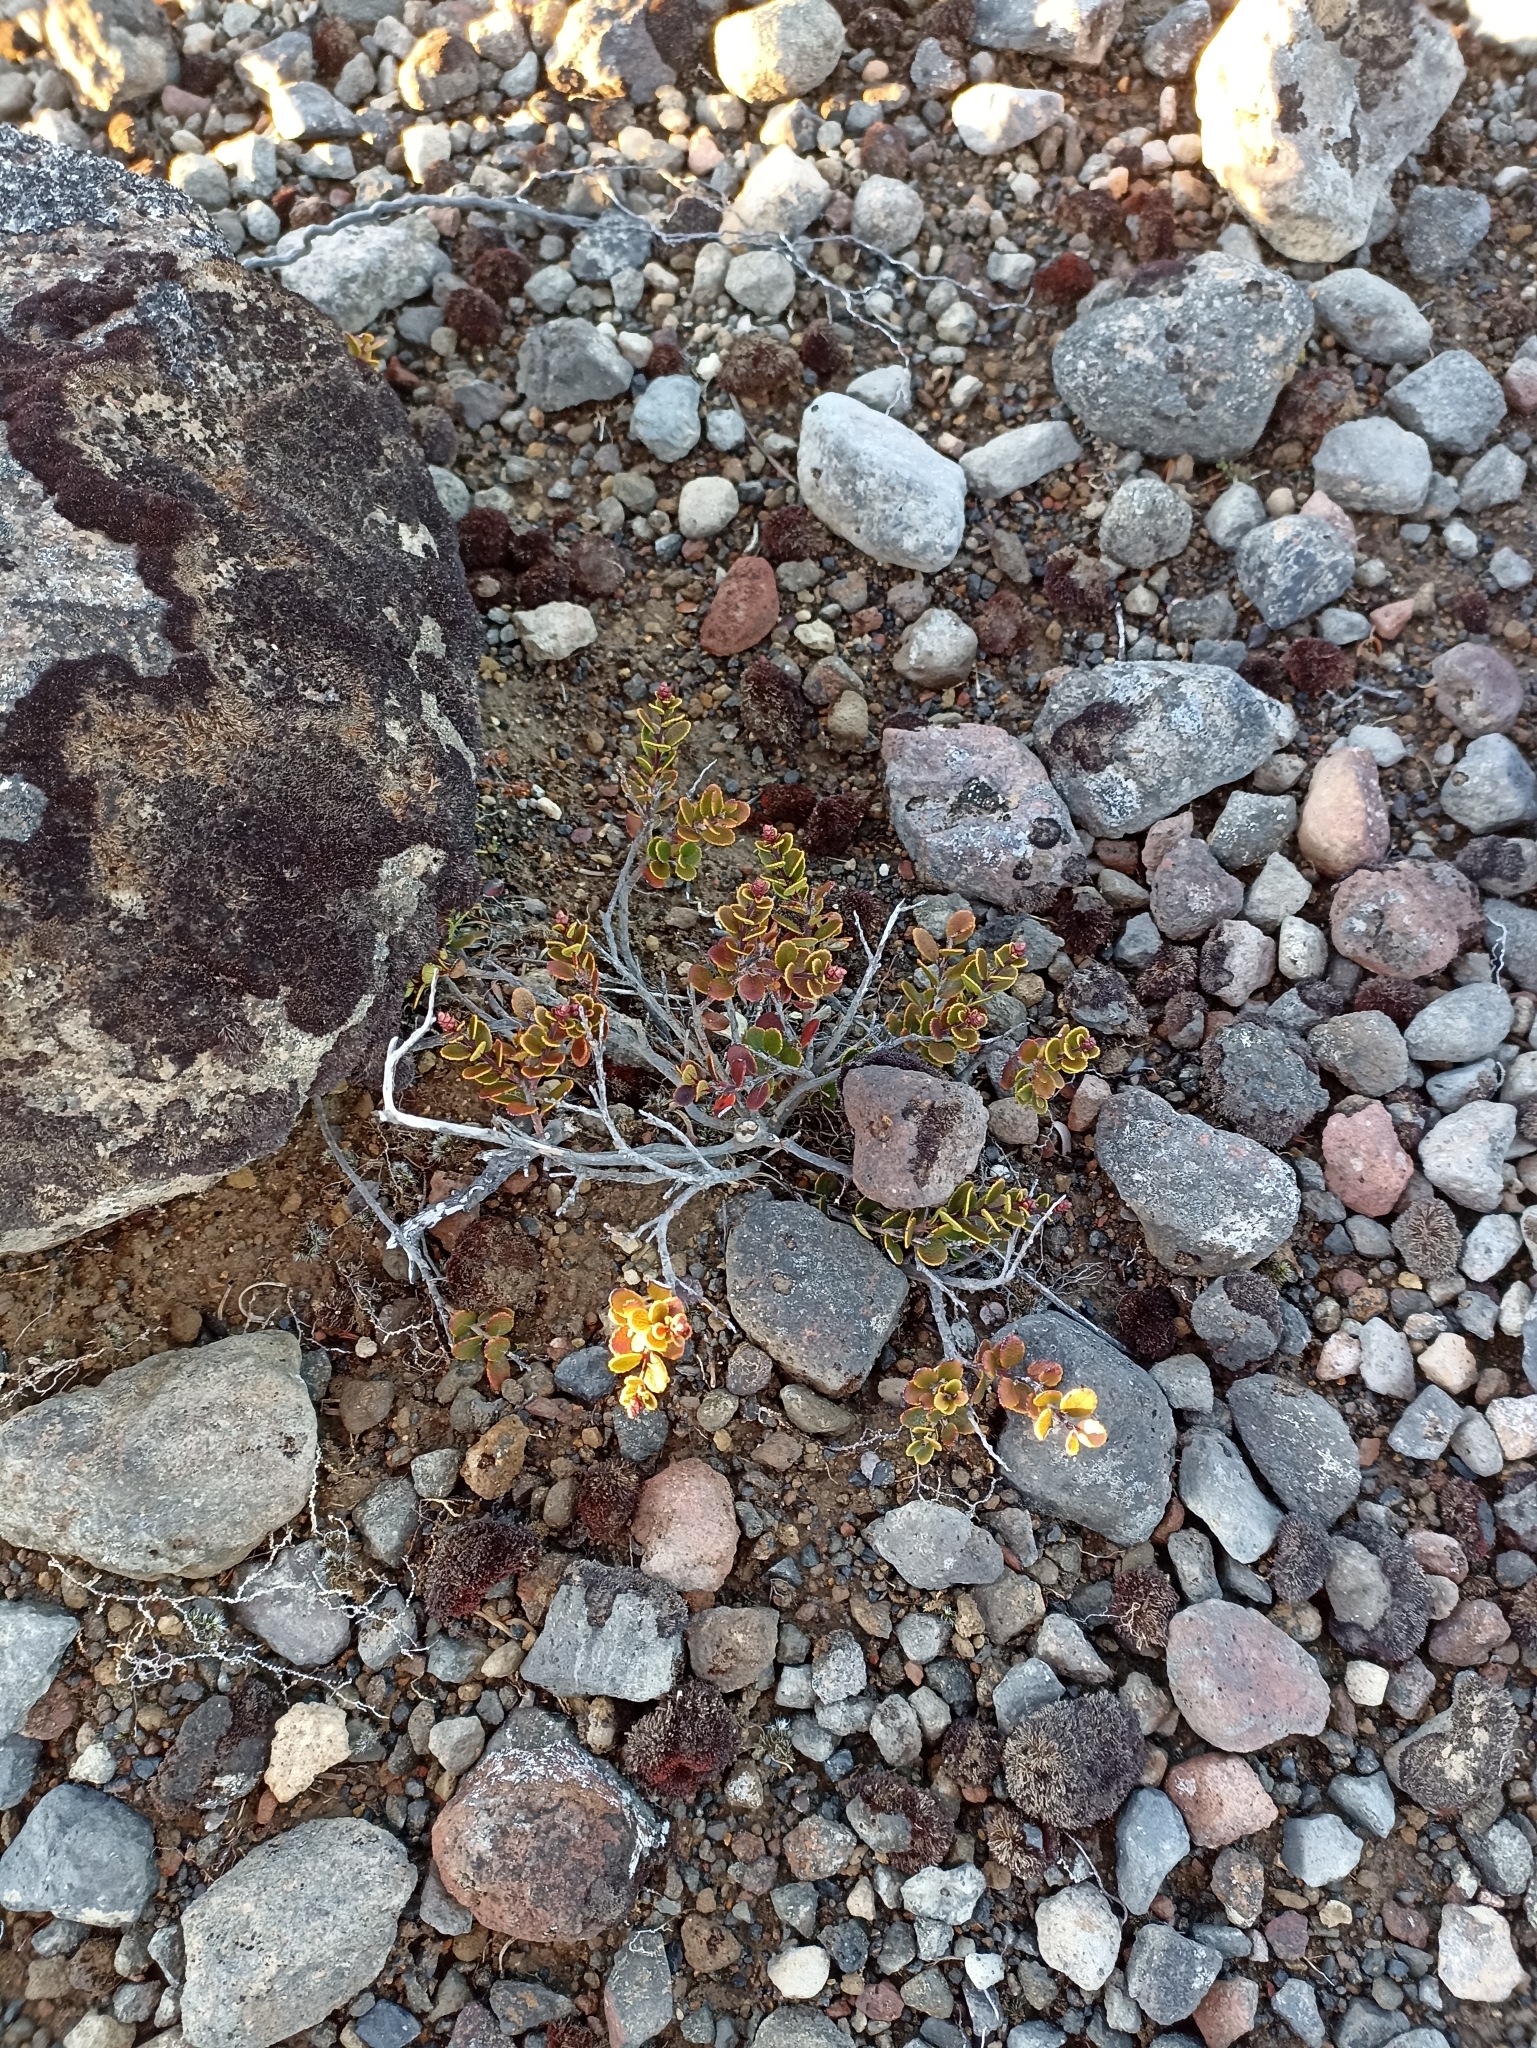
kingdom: Plantae
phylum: Tracheophyta
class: Magnoliopsida
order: Ericales
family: Ericaceae
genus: Gaultheria
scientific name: Gaultheria colensoi
